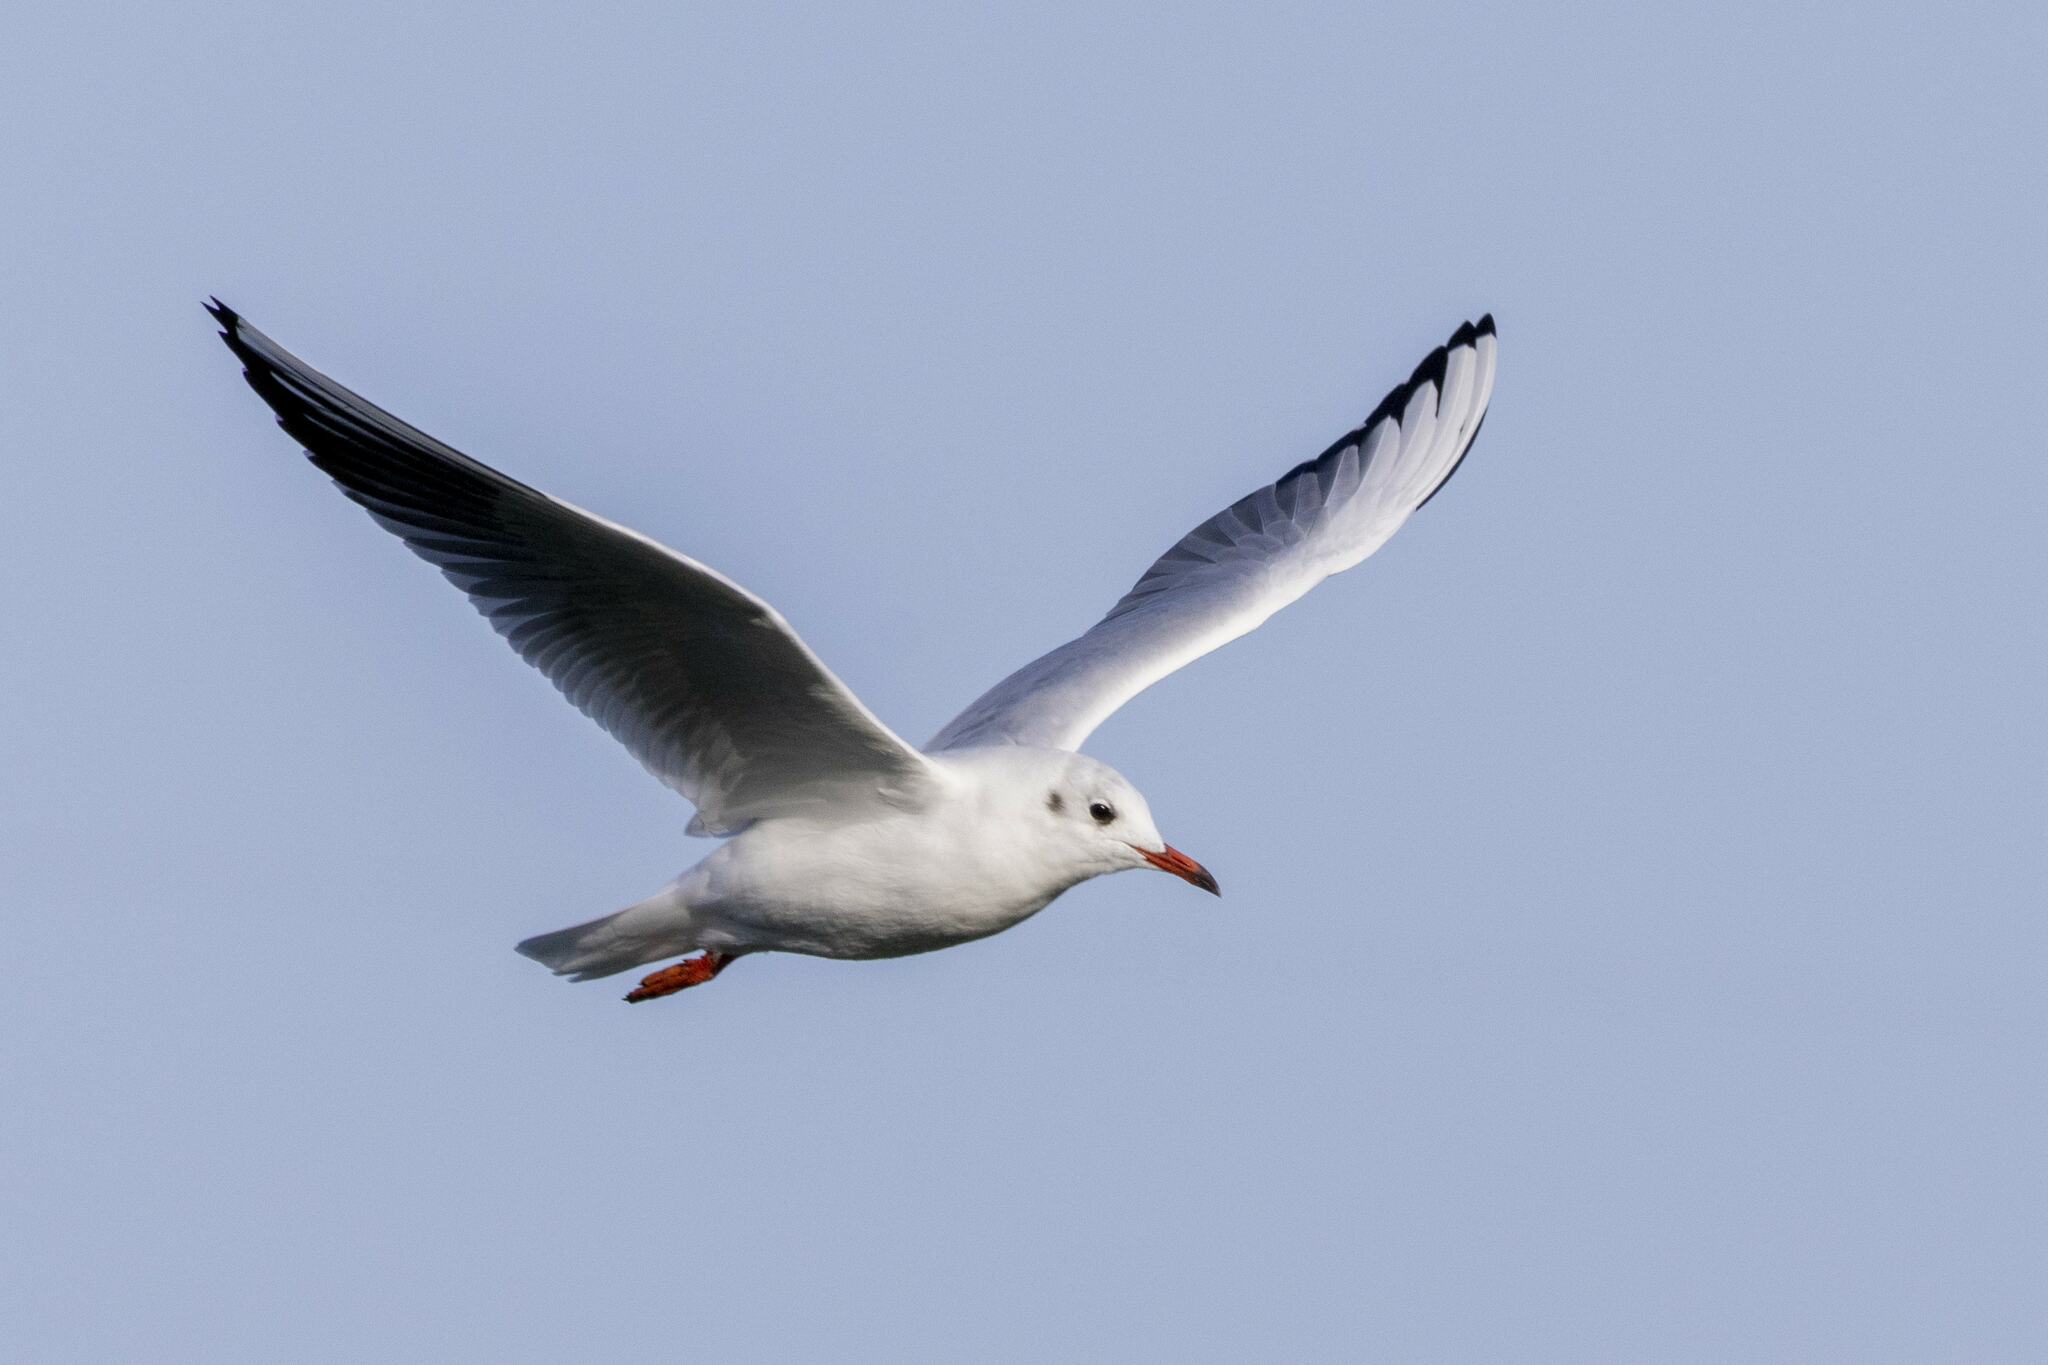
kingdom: Animalia
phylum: Chordata
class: Aves
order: Charadriiformes
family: Laridae
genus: Chroicocephalus
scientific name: Chroicocephalus ridibundus
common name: Black-headed gull
